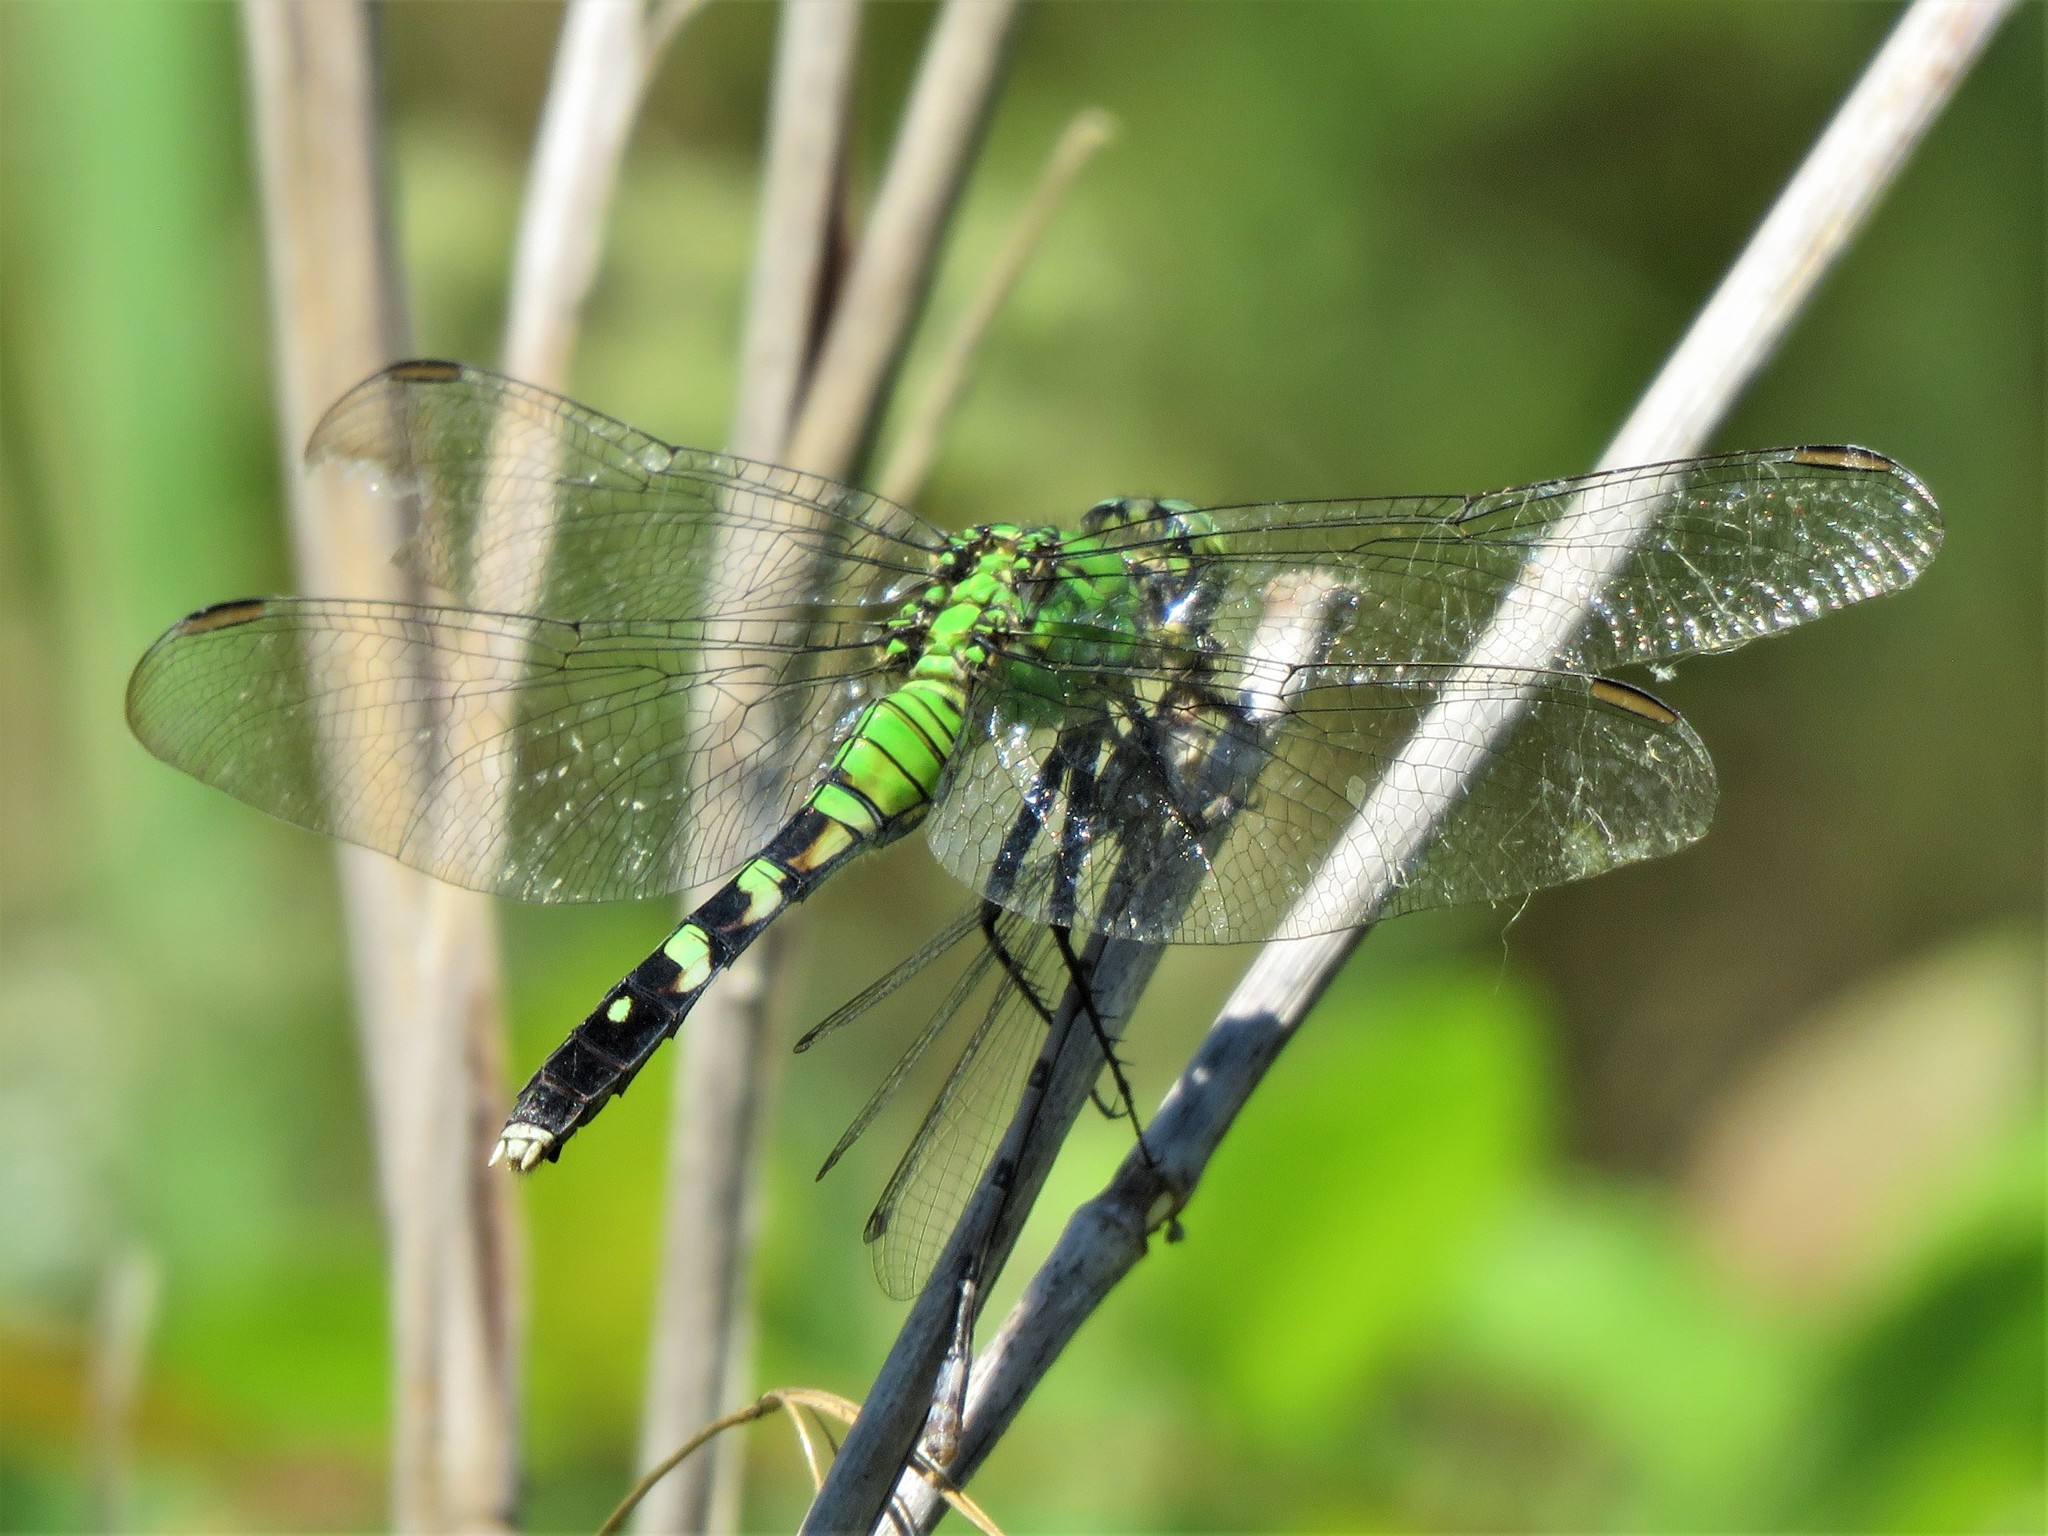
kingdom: Animalia
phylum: Arthropoda
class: Insecta
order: Odonata
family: Libellulidae
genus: Erythemis
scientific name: Erythemis simplicicollis
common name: Eastern pondhawk
